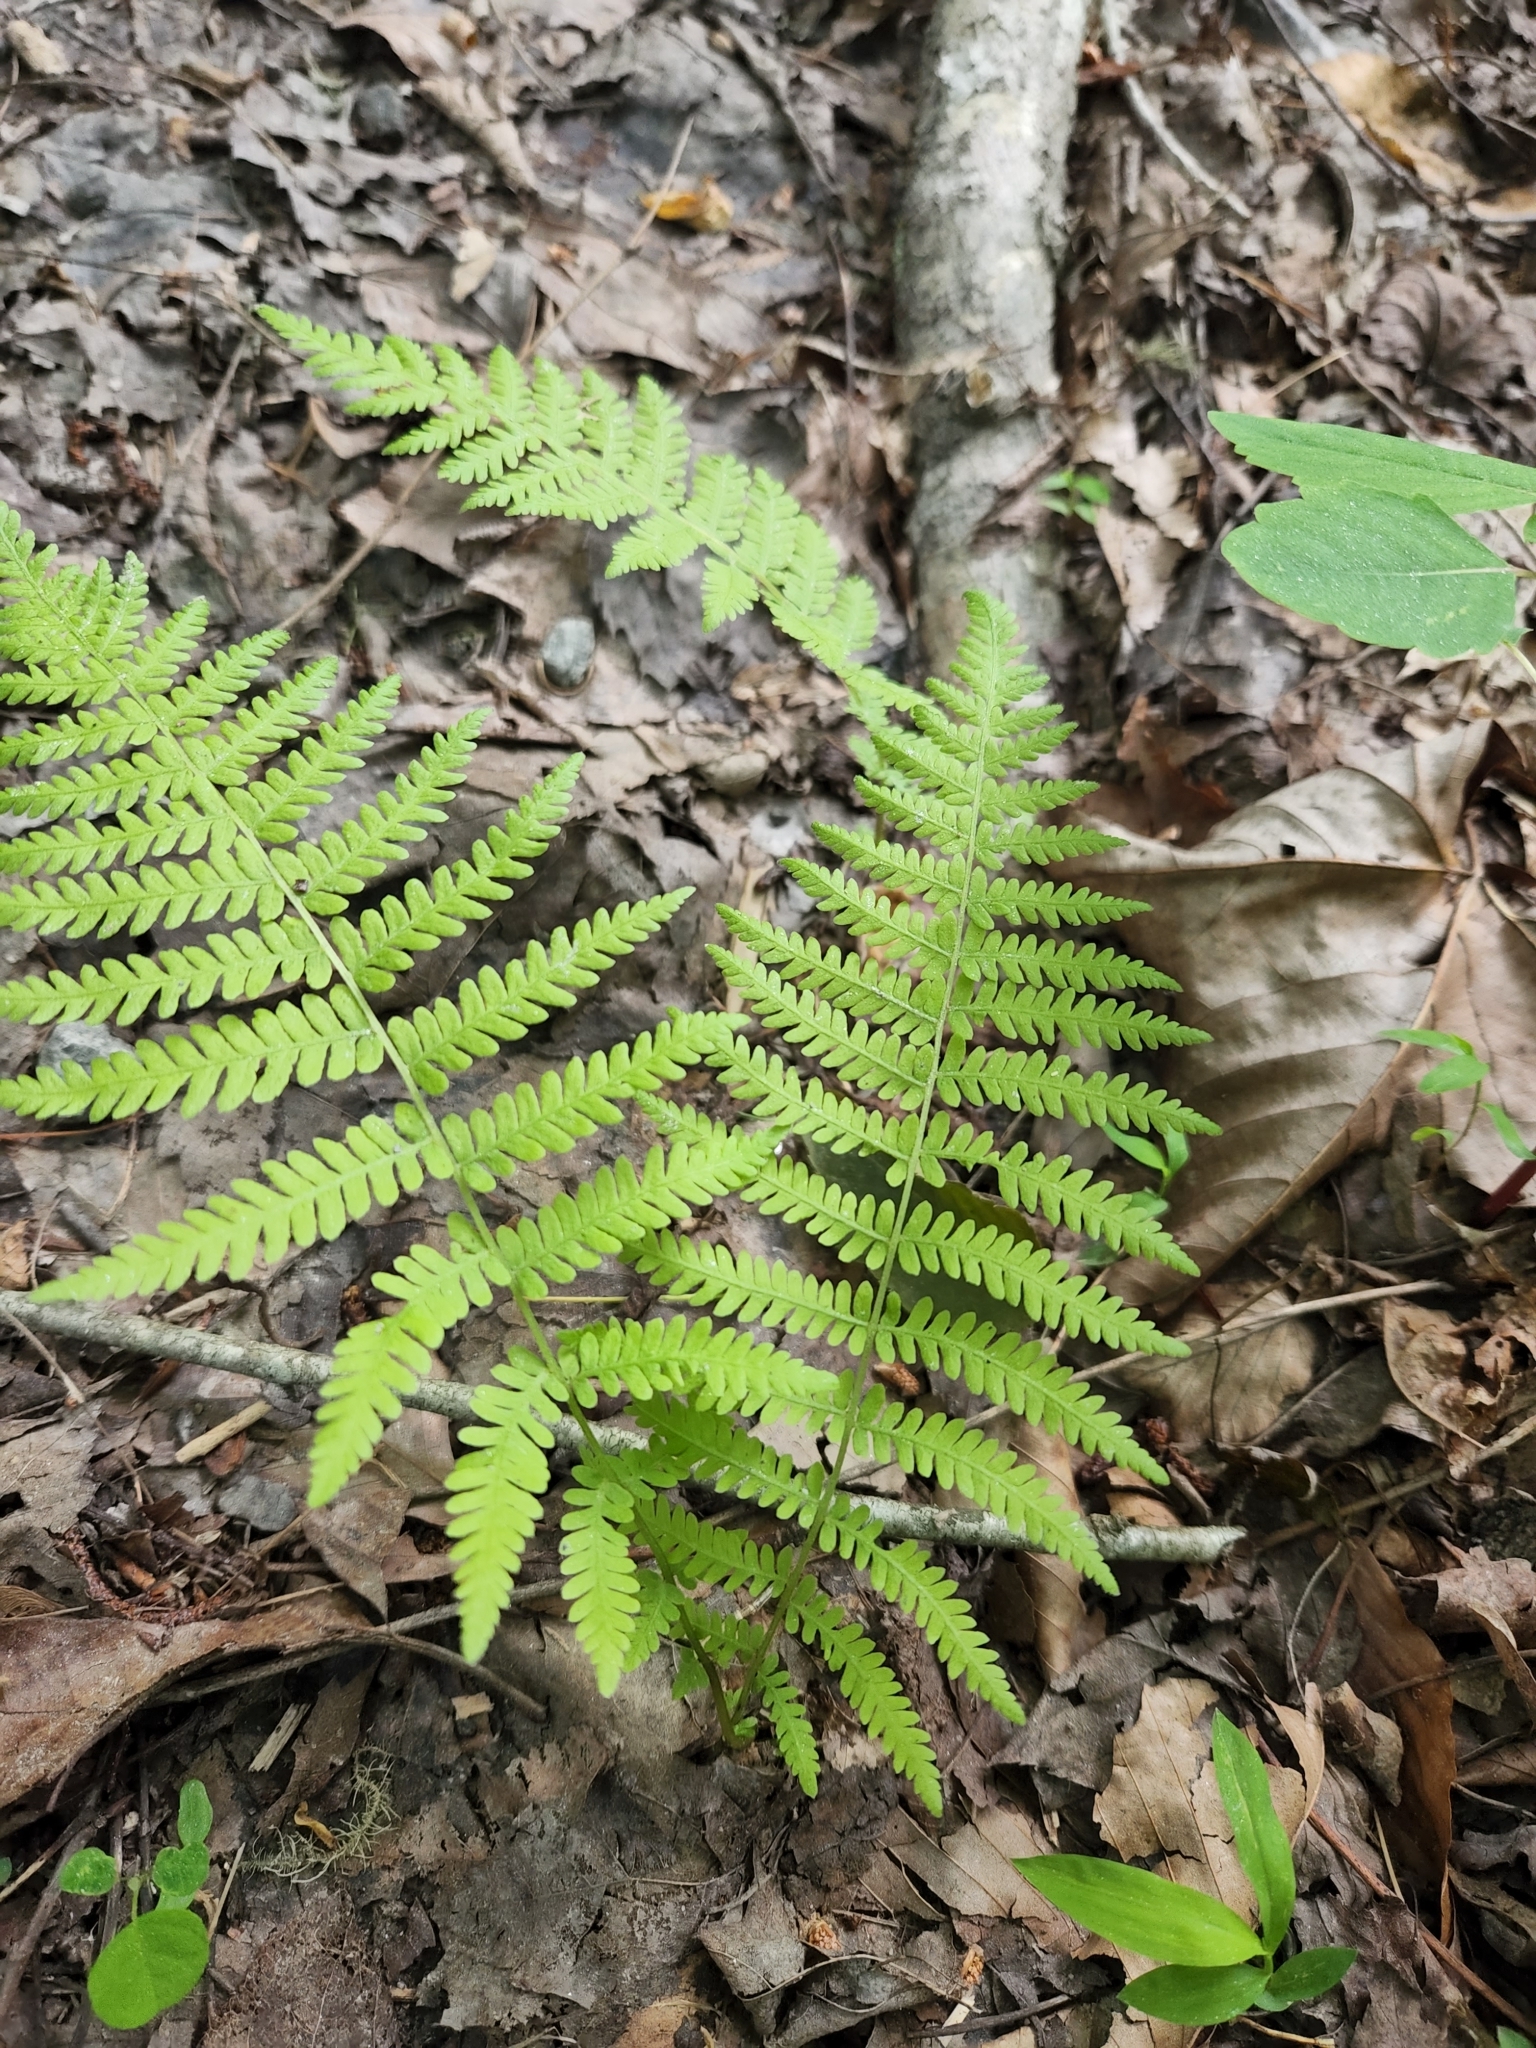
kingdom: Plantae
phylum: Tracheophyta
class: Polypodiopsida
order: Polypodiales
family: Thelypteridaceae
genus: Amauropelta
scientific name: Amauropelta noveboracensis
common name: New york fern
